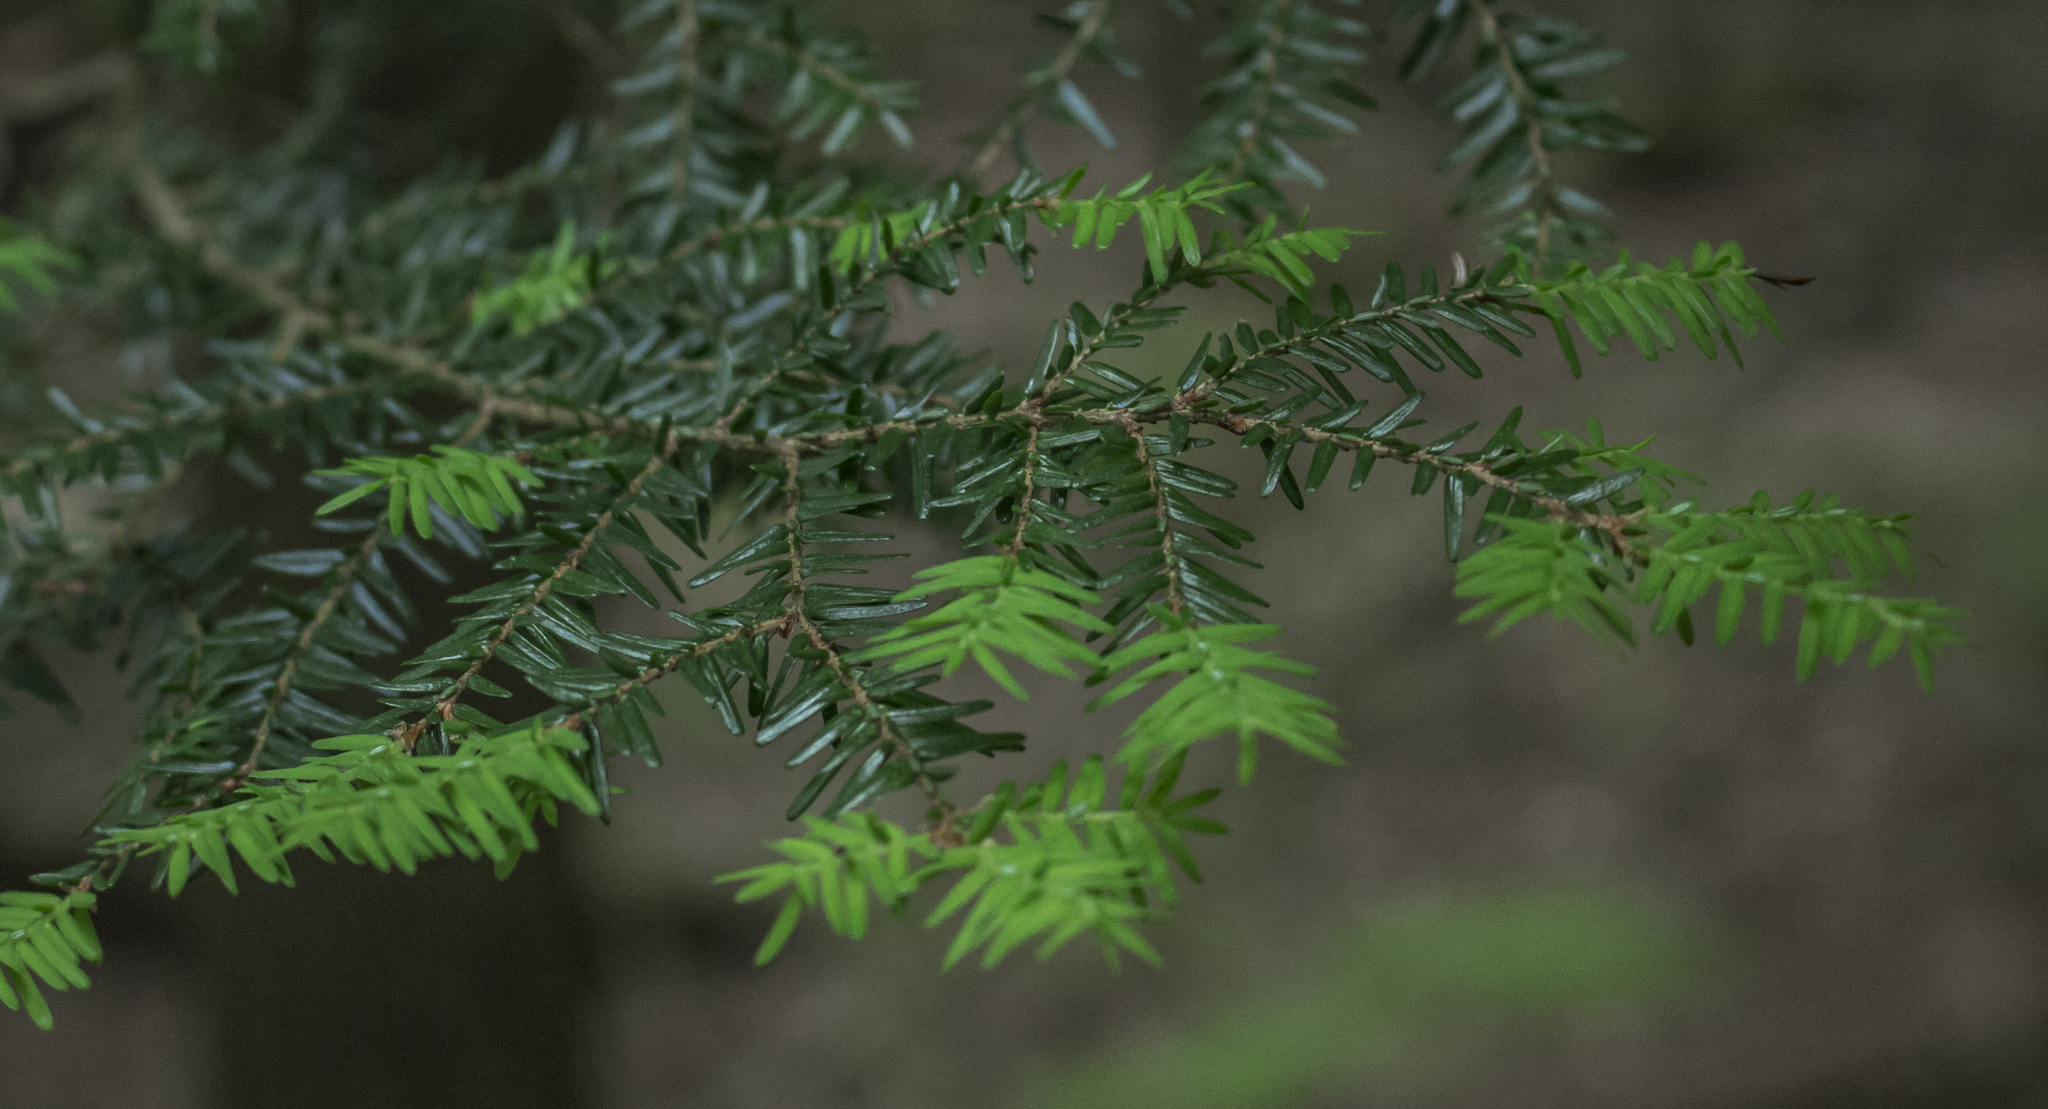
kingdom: Plantae
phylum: Tracheophyta
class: Pinopsida
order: Pinales
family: Pinaceae
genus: Tsuga
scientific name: Tsuga canadensis
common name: Eastern hemlock
